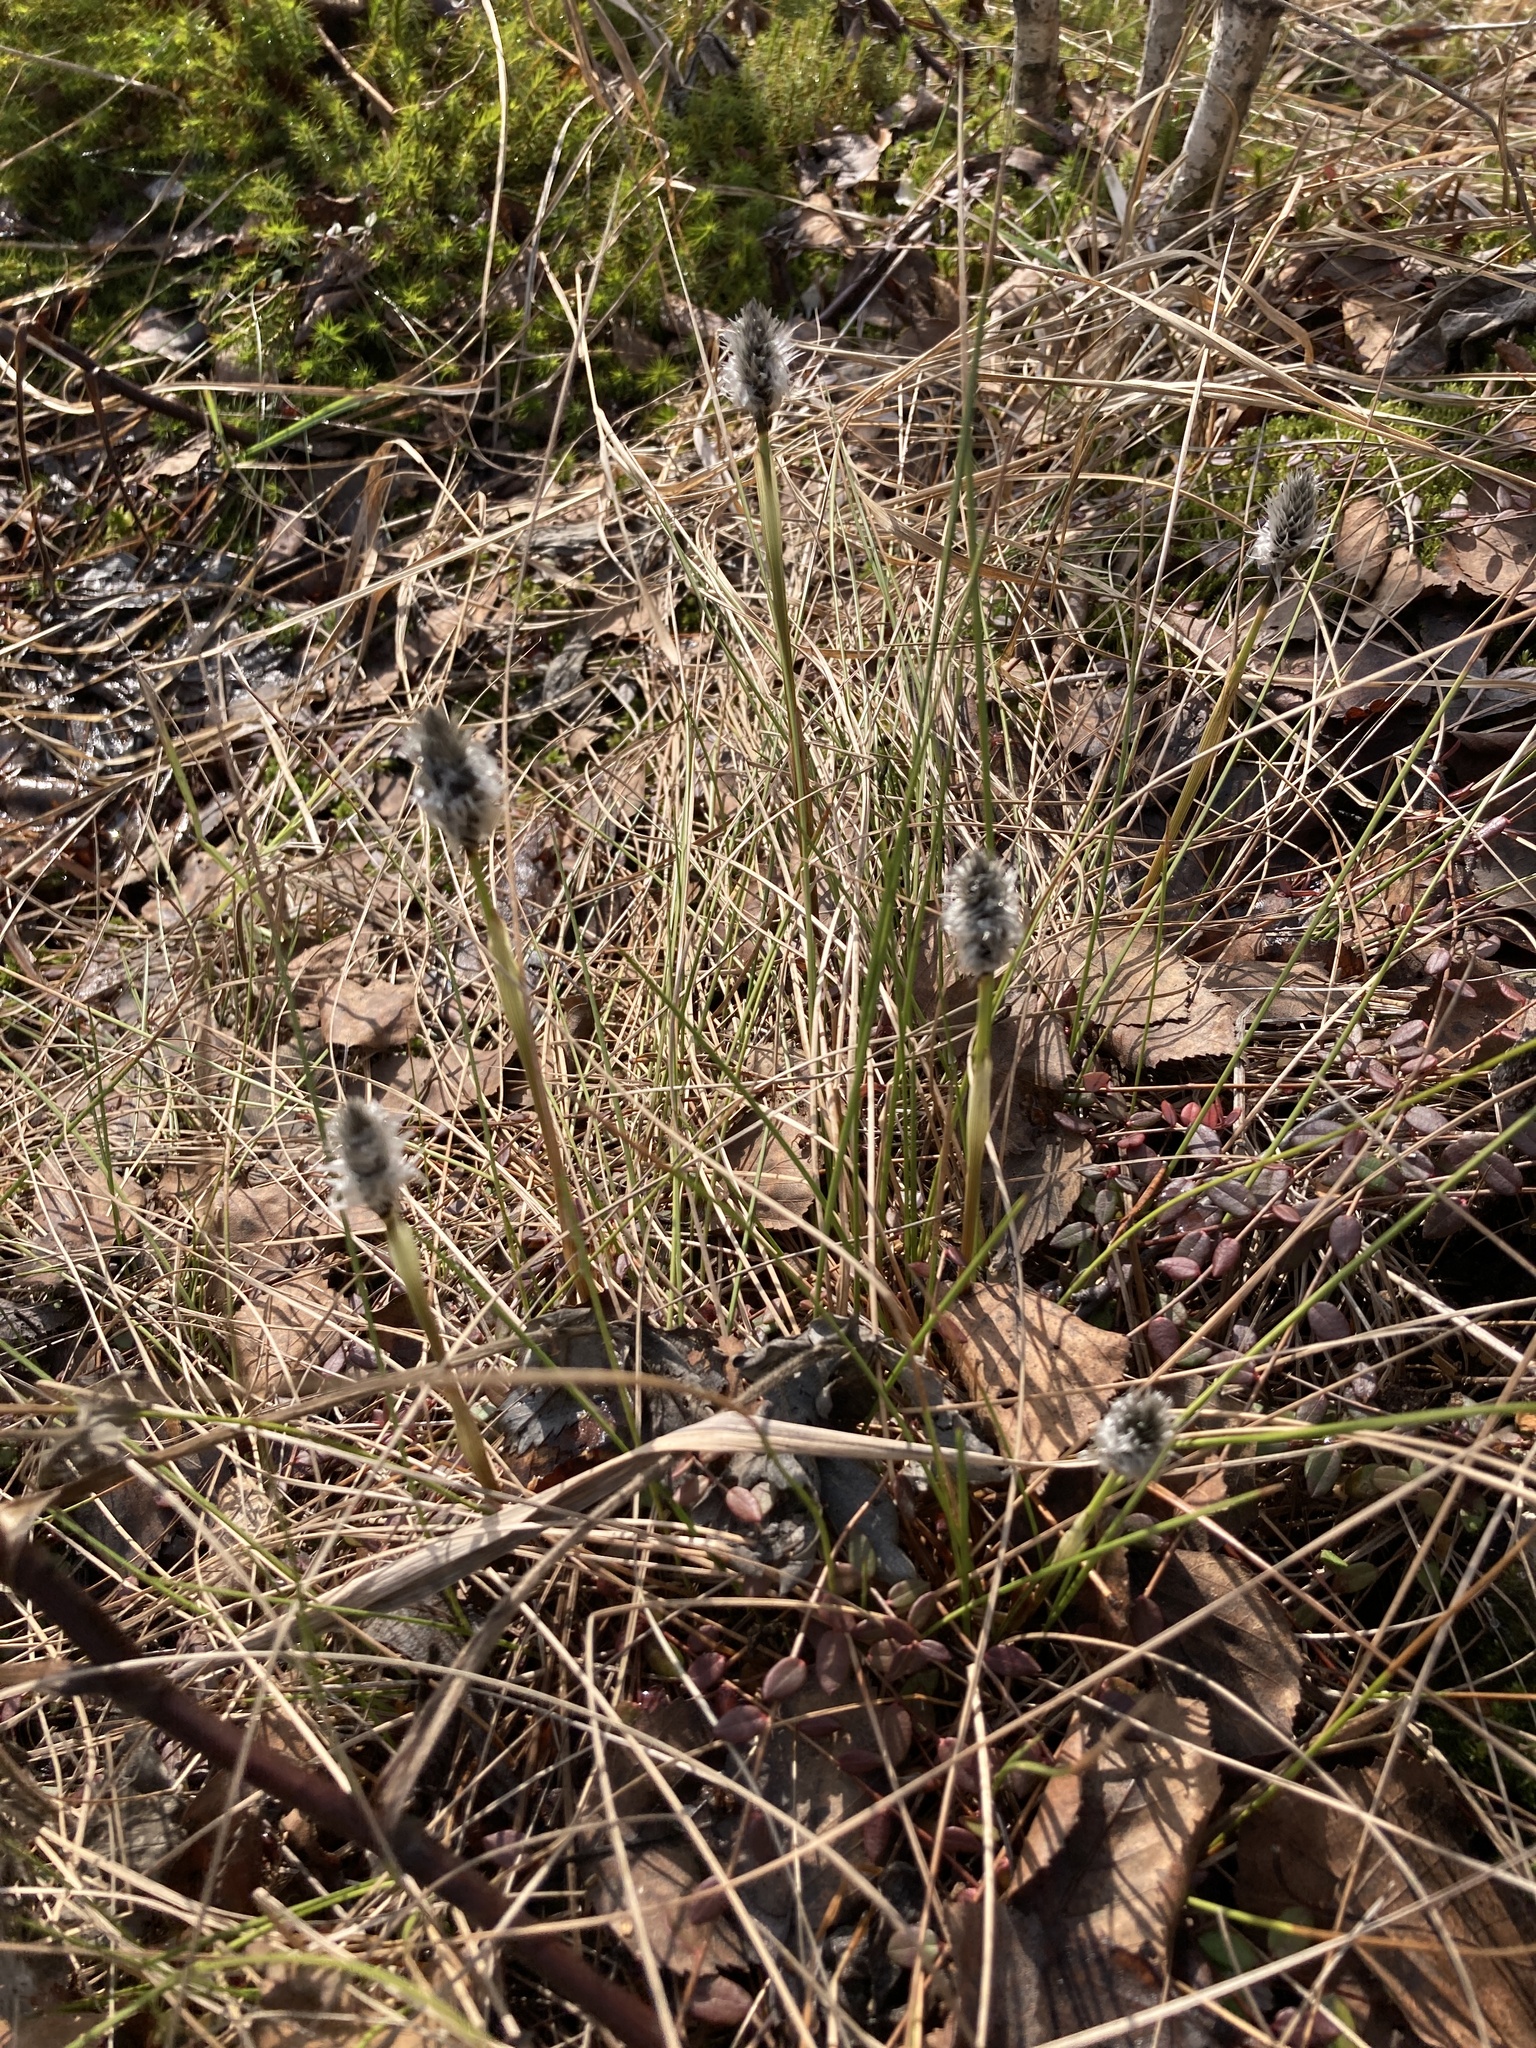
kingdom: Plantae
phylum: Tracheophyta
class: Liliopsida
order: Poales
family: Cyperaceae
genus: Eriophorum
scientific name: Eriophorum vaginatum
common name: Hare's-tail cottongrass
